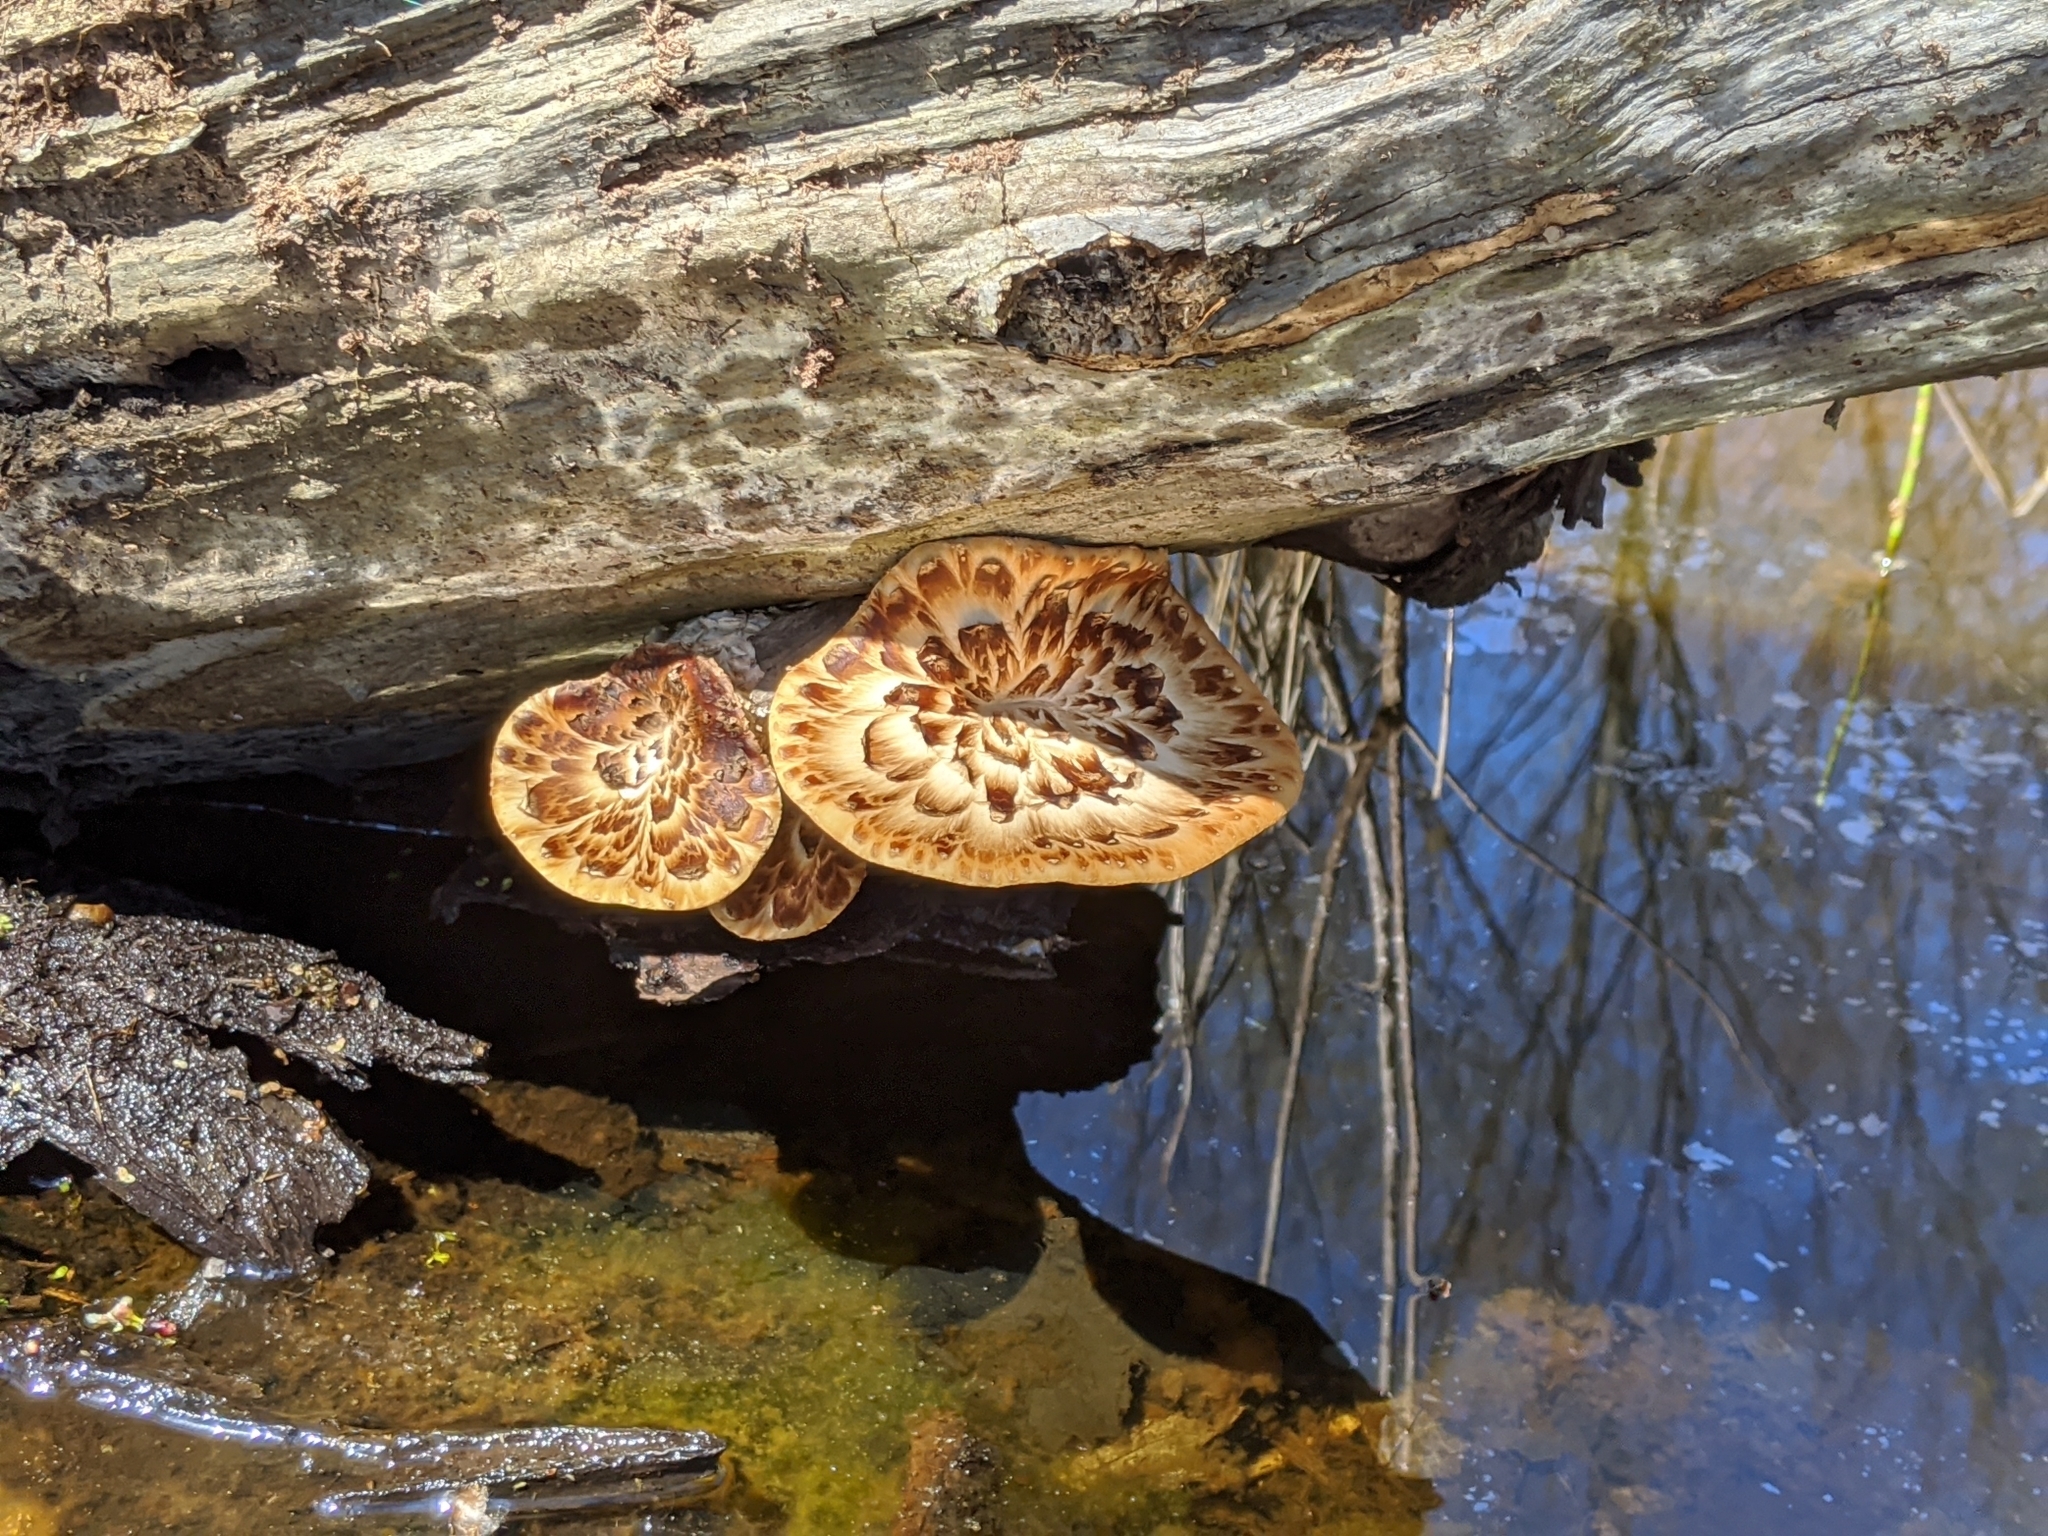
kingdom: Fungi
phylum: Basidiomycota
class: Agaricomycetes
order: Polyporales
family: Polyporaceae
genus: Cerioporus
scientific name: Cerioporus squamosus
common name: Dryad's saddle
